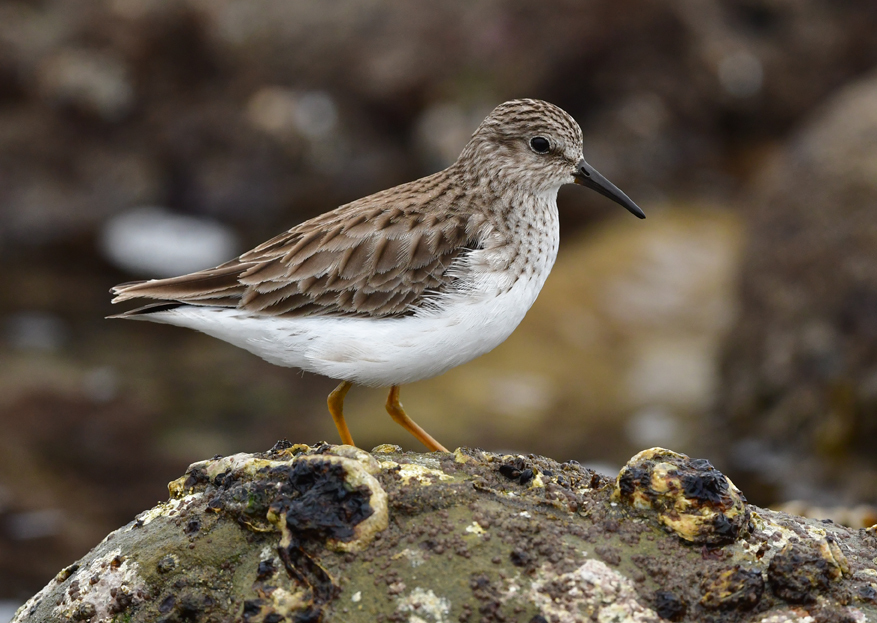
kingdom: Animalia
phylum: Chordata
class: Aves
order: Charadriiformes
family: Scolopacidae
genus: Calidris
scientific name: Calidris minutilla
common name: Least sandpiper
